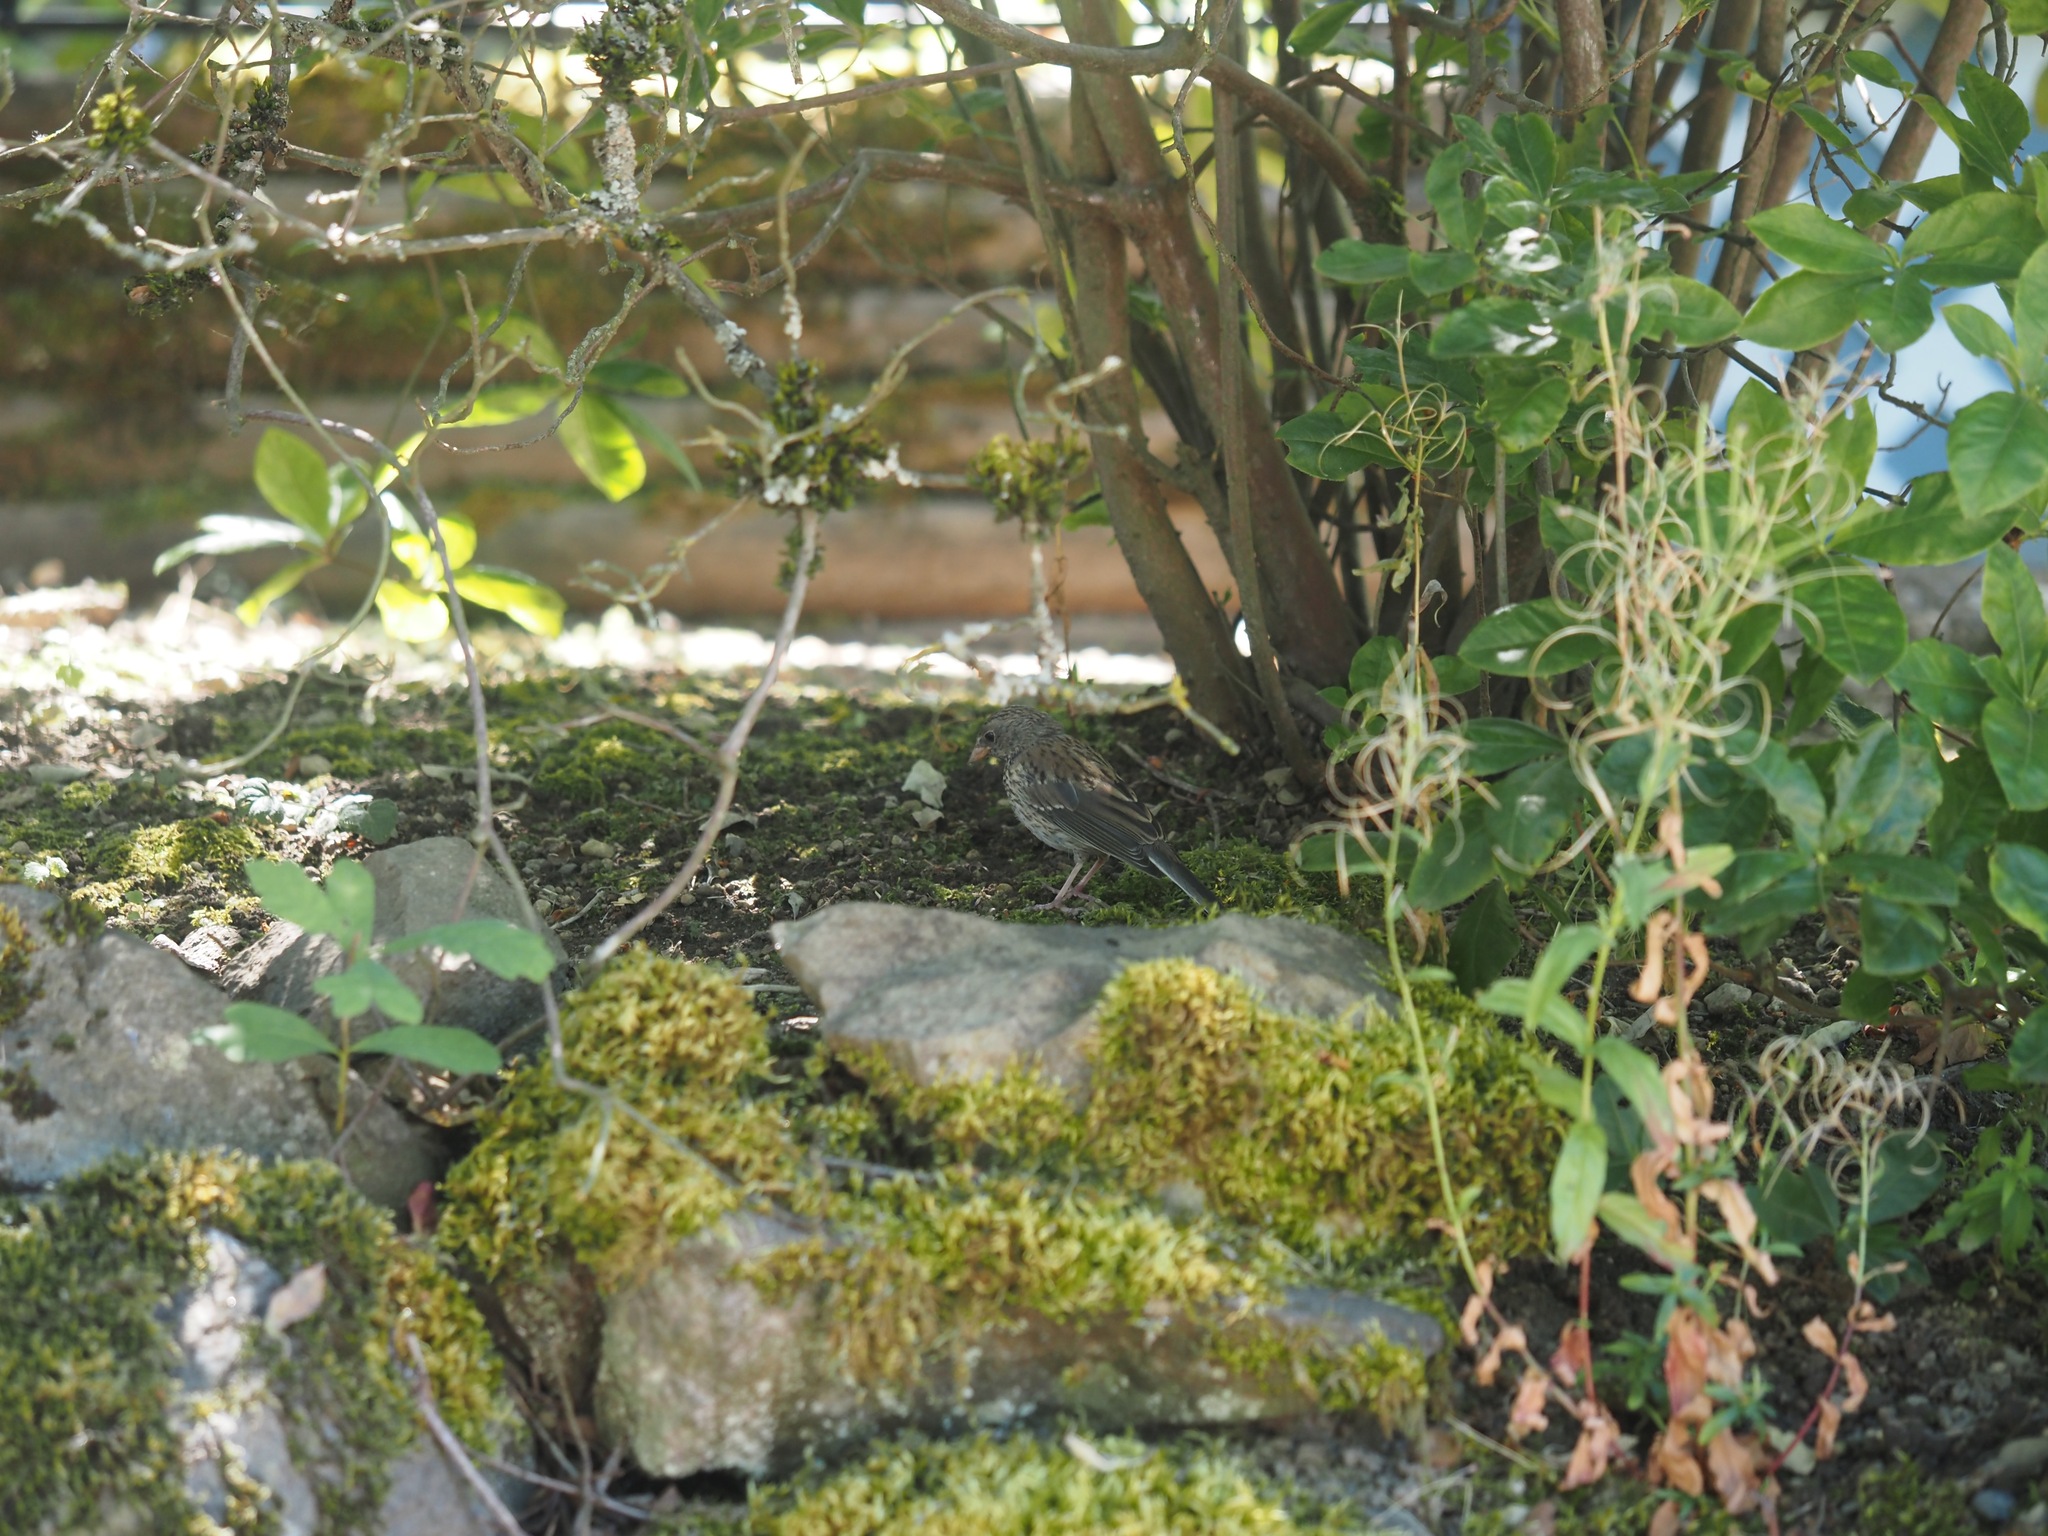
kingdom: Animalia
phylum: Chordata
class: Aves
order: Passeriformes
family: Passerellidae
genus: Junco
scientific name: Junco hyemalis
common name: Dark-eyed junco
